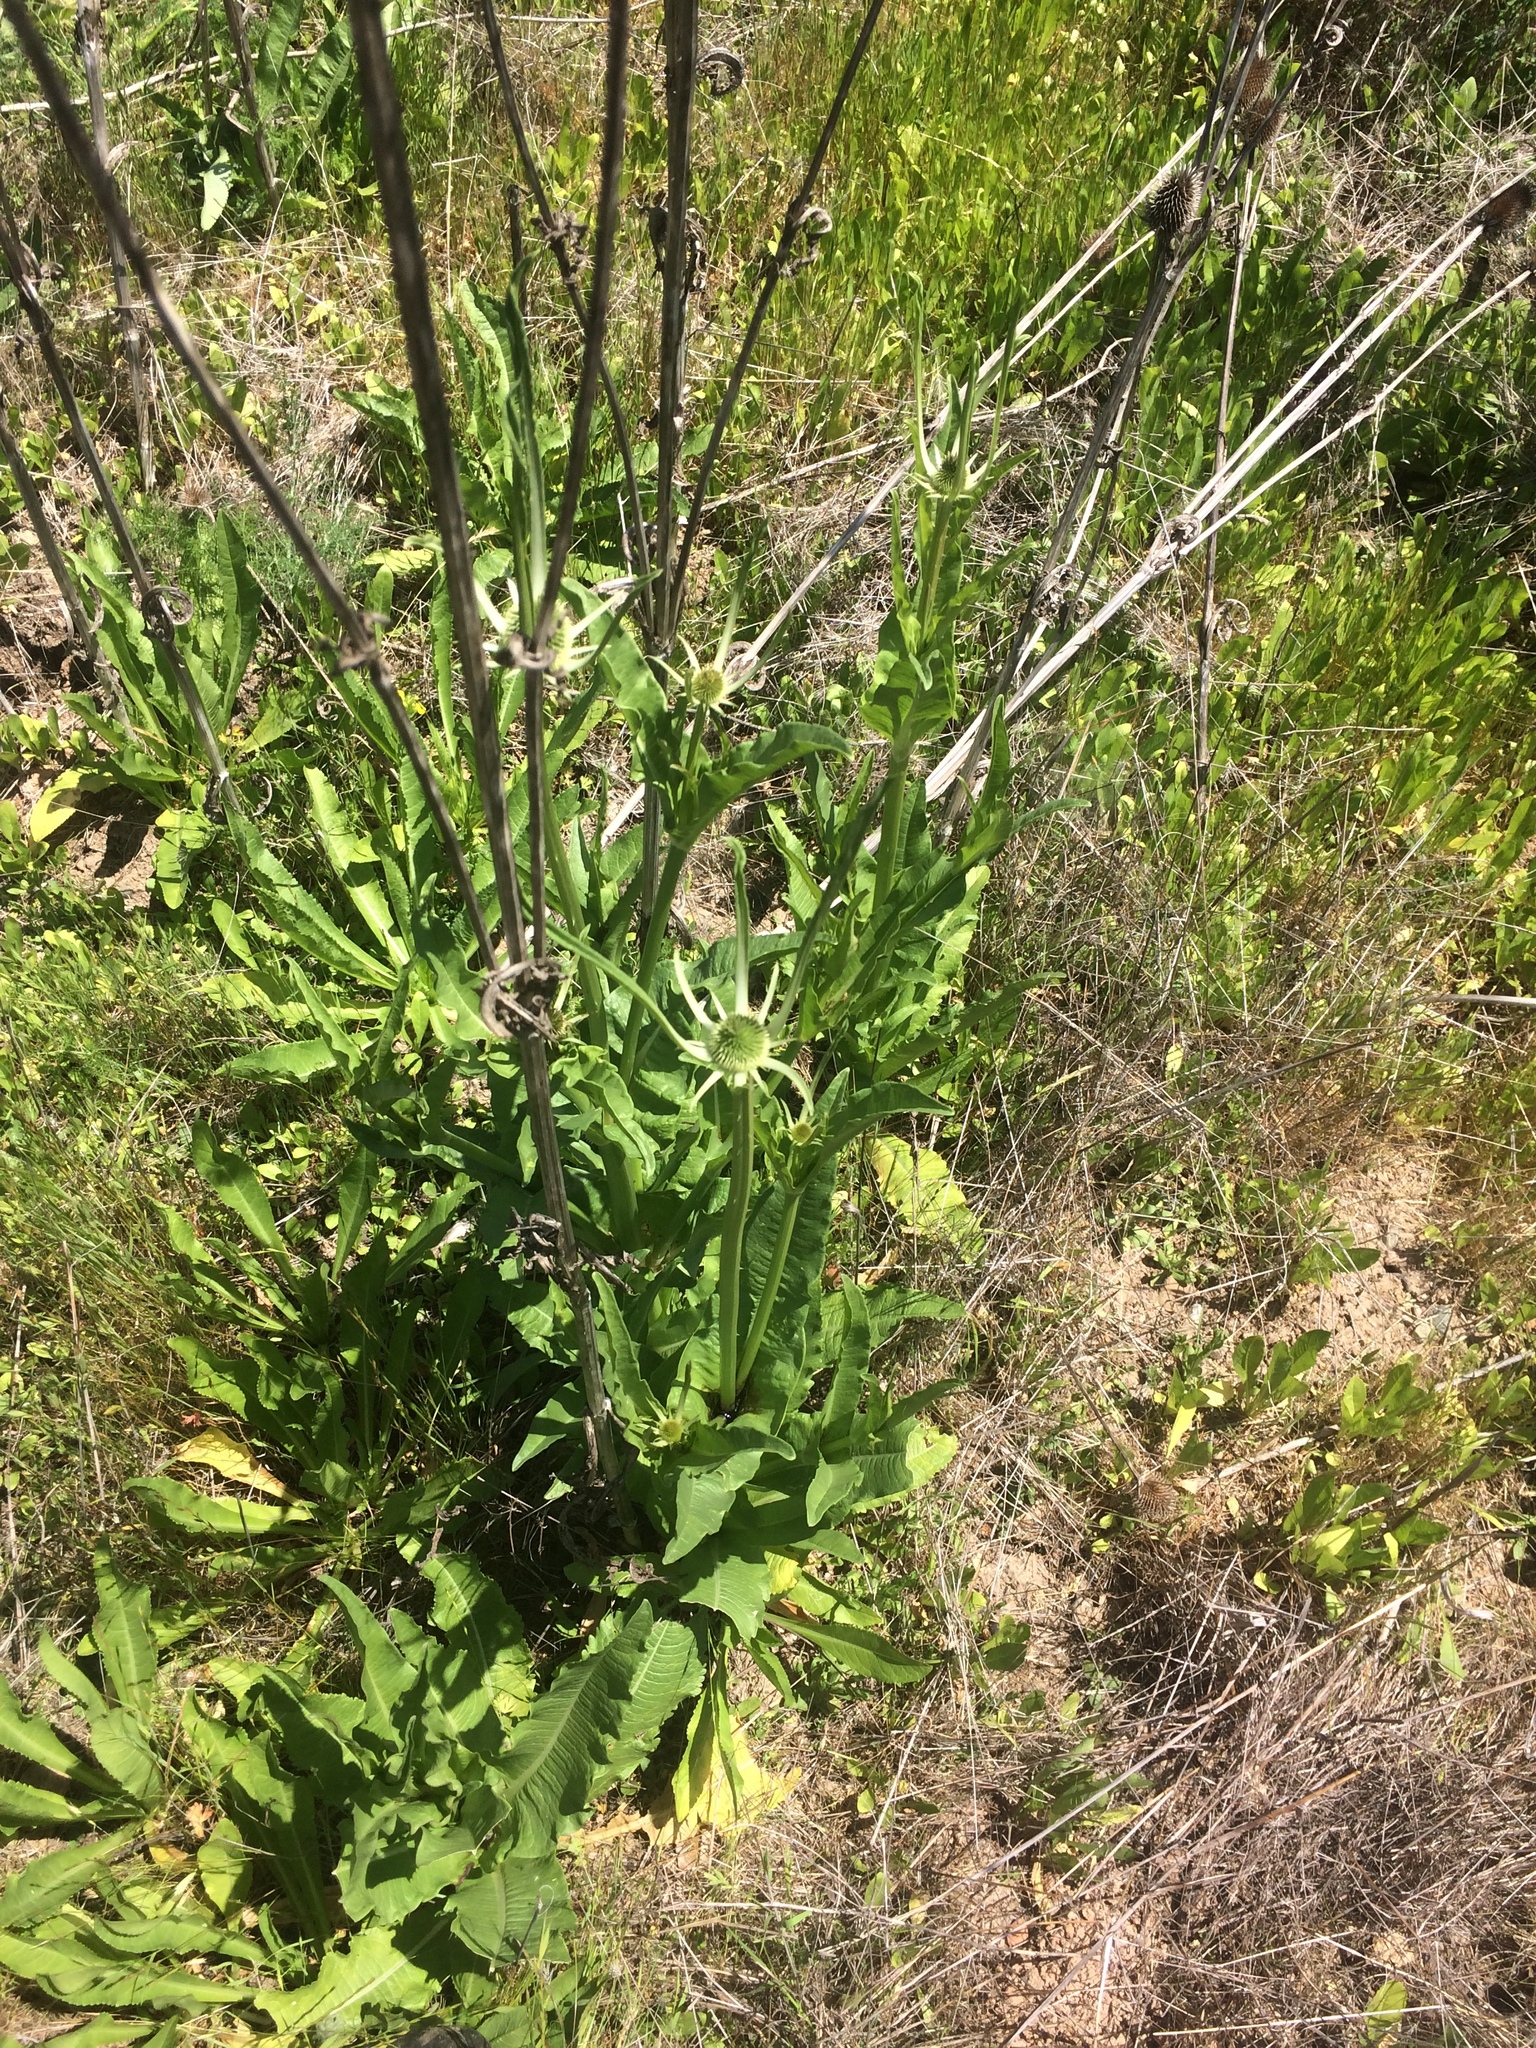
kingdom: Plantae
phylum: Tracheophyta
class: Magnoliopsida
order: Dipsacales
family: Caprifoliaceae
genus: Dipsacus
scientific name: Dipsacus sativus
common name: Fuller's teasel
